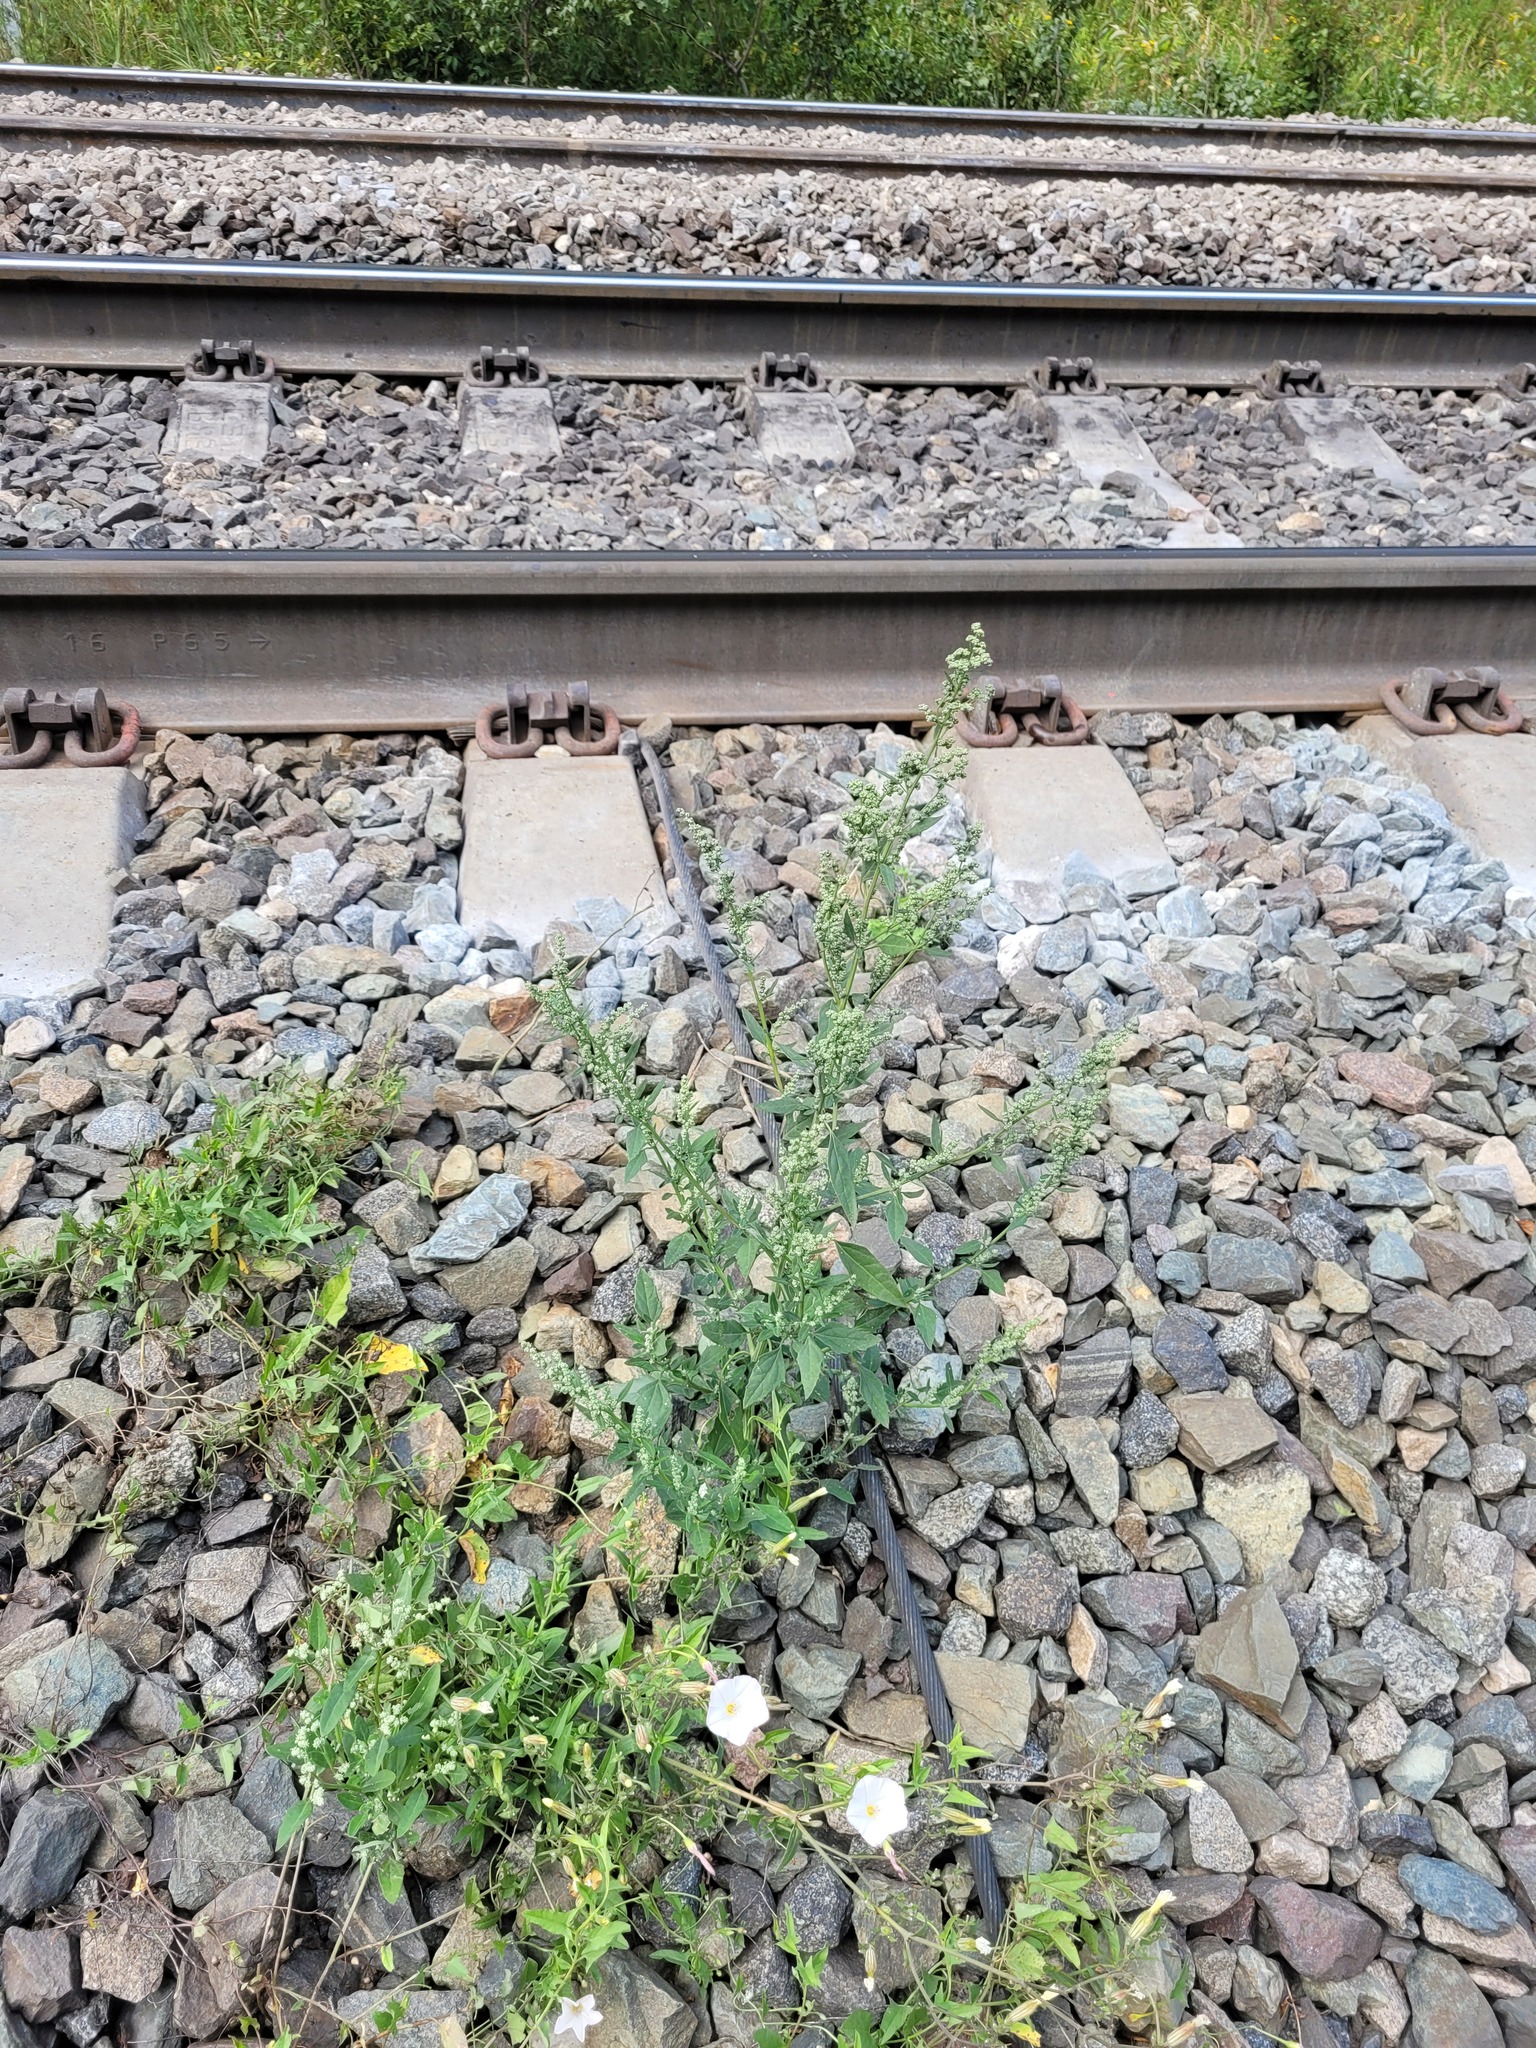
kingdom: Plantae
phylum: Tracheophyta
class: Magnoliopsida
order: Caryophyllales
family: Amaranthaceae
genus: Chenopodium
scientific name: Chenopodium album
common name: Fat-hen
